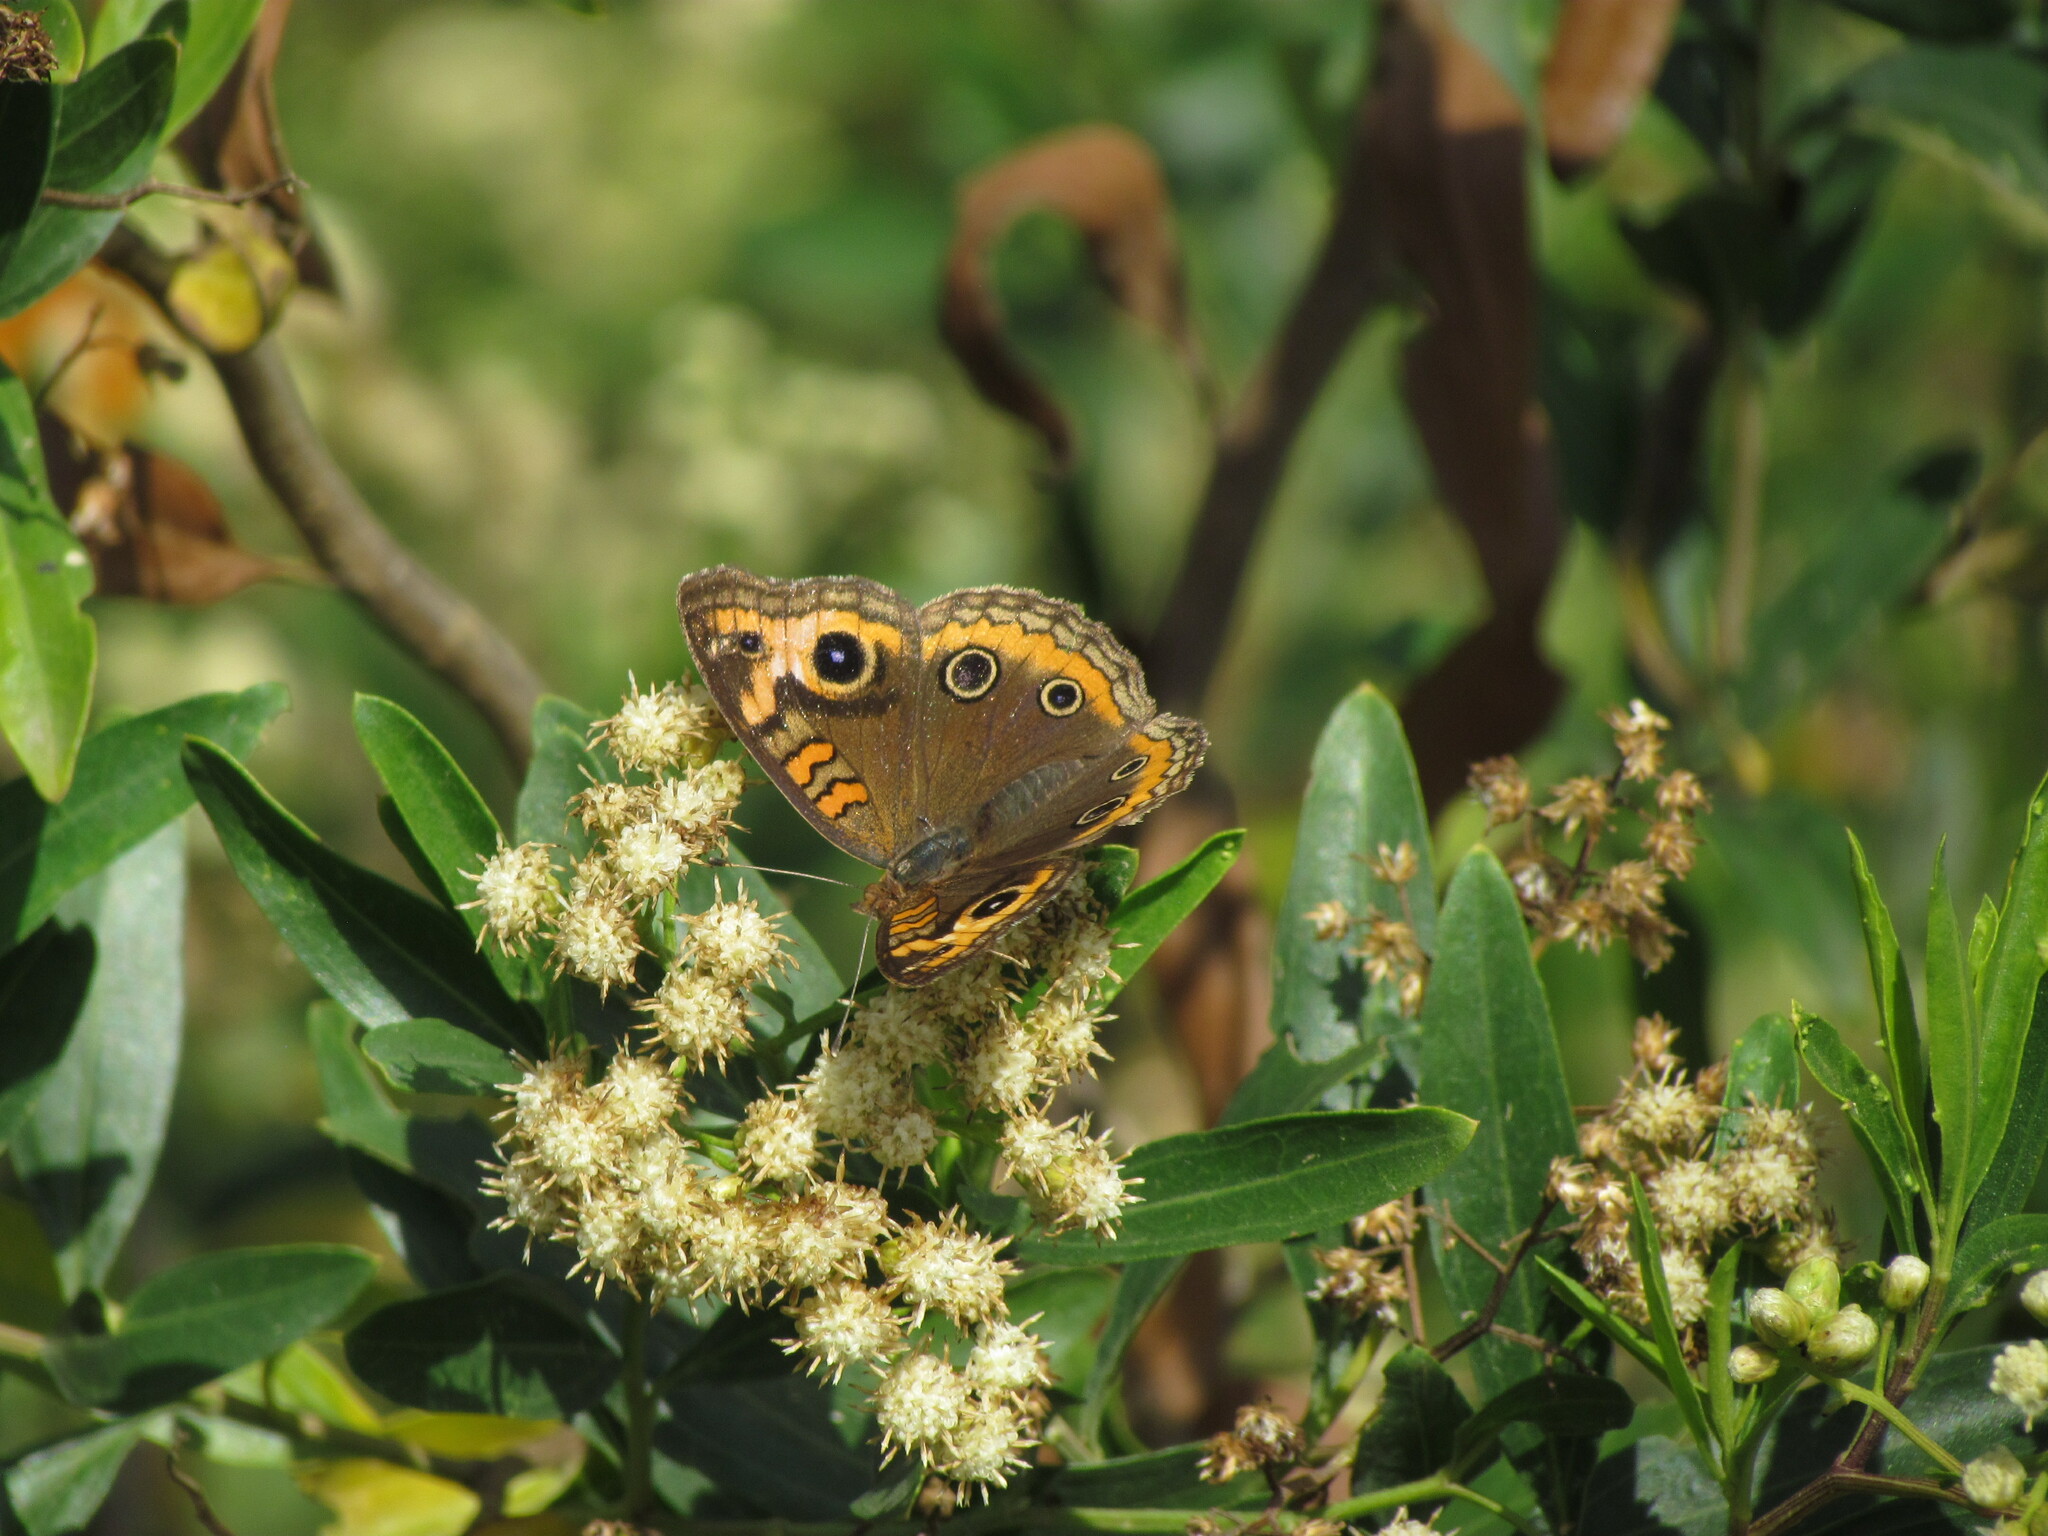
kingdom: Animalia
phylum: Arthropoda
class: Insecta
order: Lepidoptera
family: Nymphalidae
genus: Junonia
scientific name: Junonia lavinia
